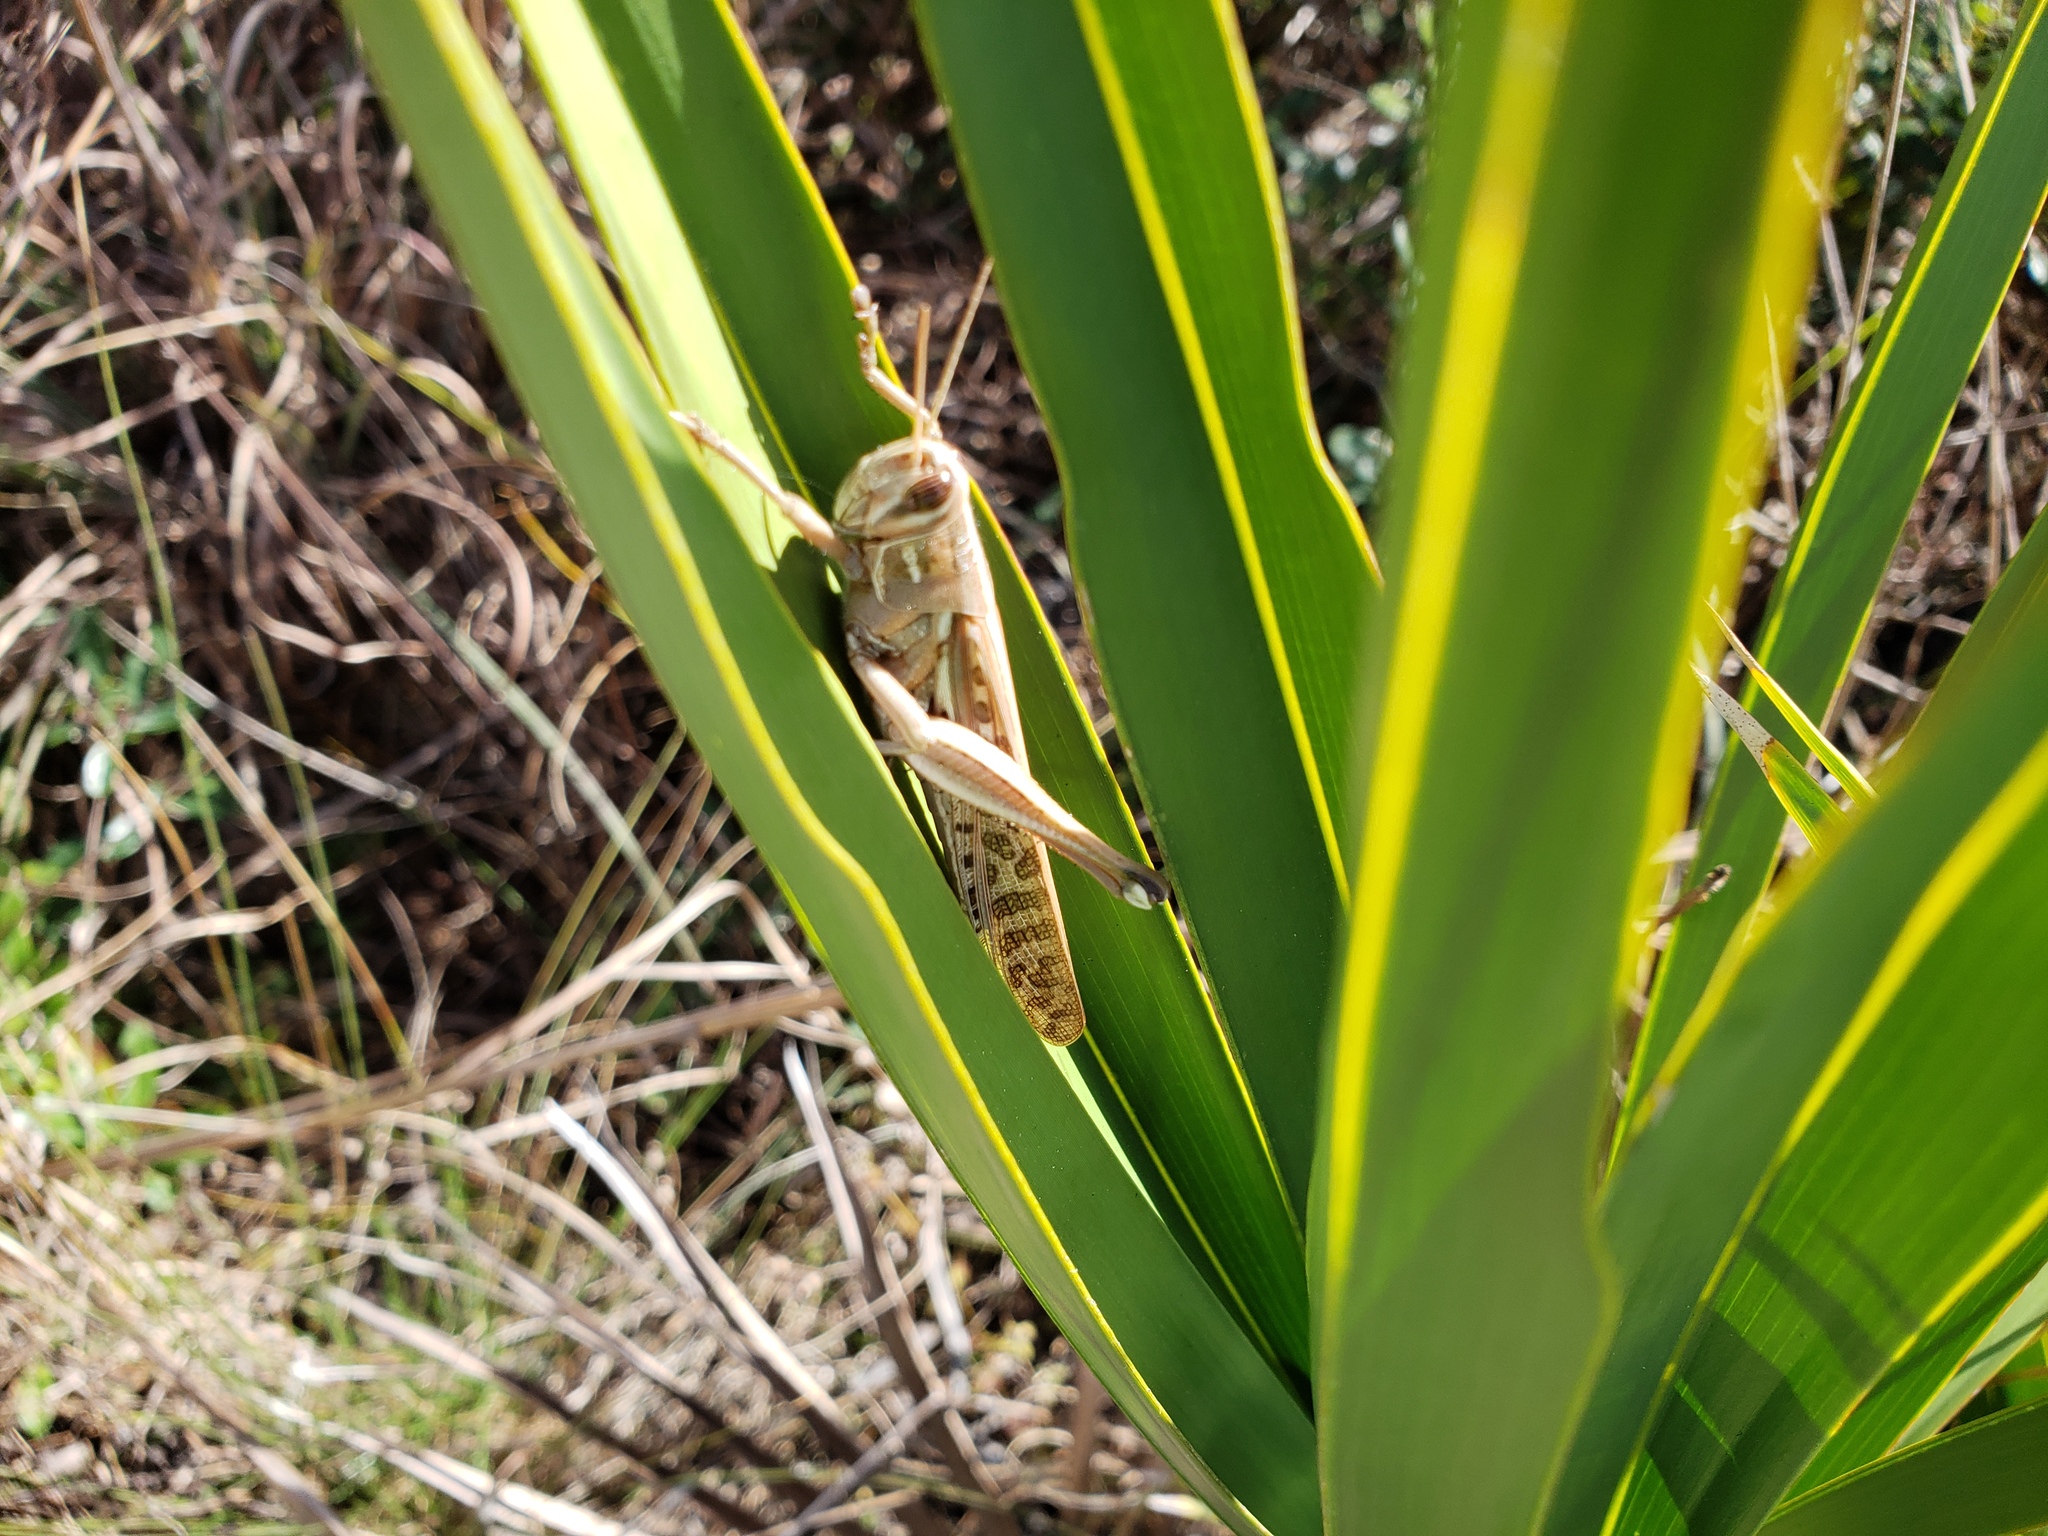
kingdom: Animalia
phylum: Arthropoda
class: Insecta
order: Orthoptera
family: Acrididae
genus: Schistocerca
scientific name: Schistocerca americana
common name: American bird locust
